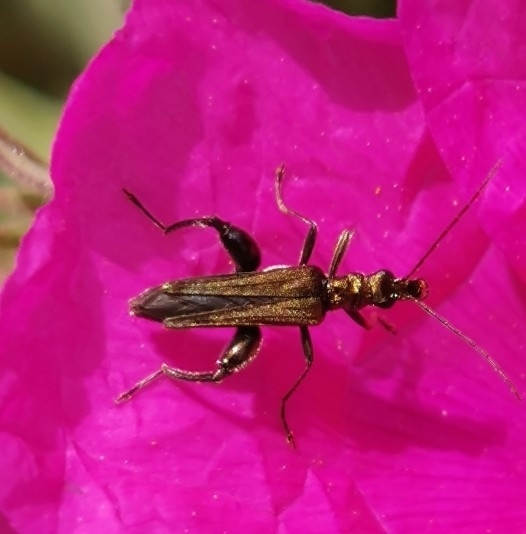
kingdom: Animalia
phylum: Arthropoda
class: Insecta
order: Coleoptera
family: Oedemeridae
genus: Oedemera
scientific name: Oedemera flavipes
